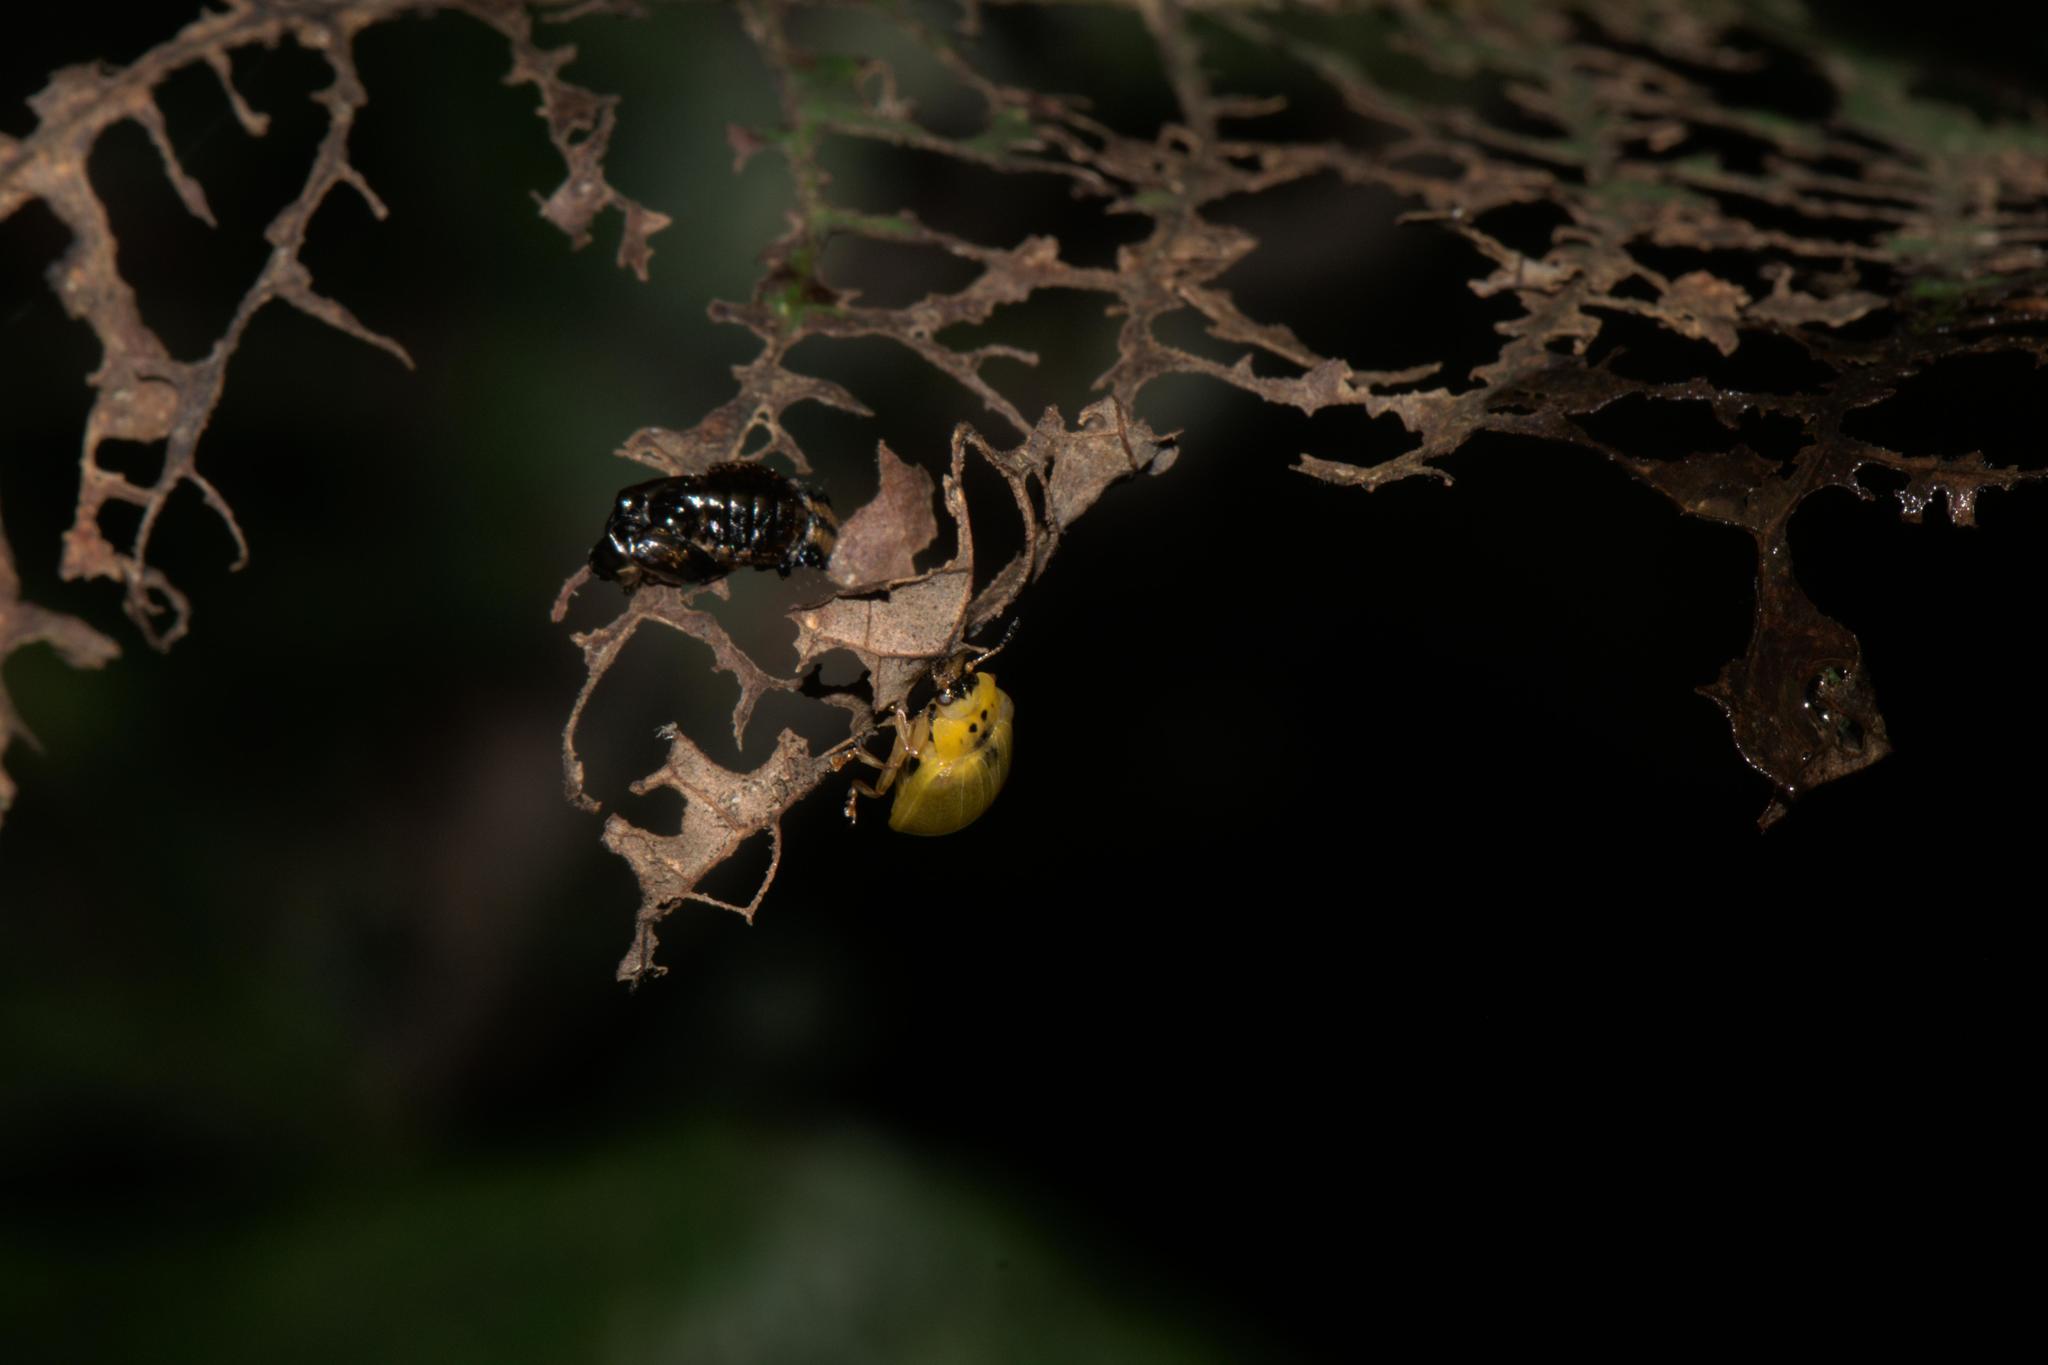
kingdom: Animalia
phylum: Arthropoda
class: Insecta
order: Coleoptera
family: Chrysomelidae
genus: Plagiosterna
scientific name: Plagiosterna
